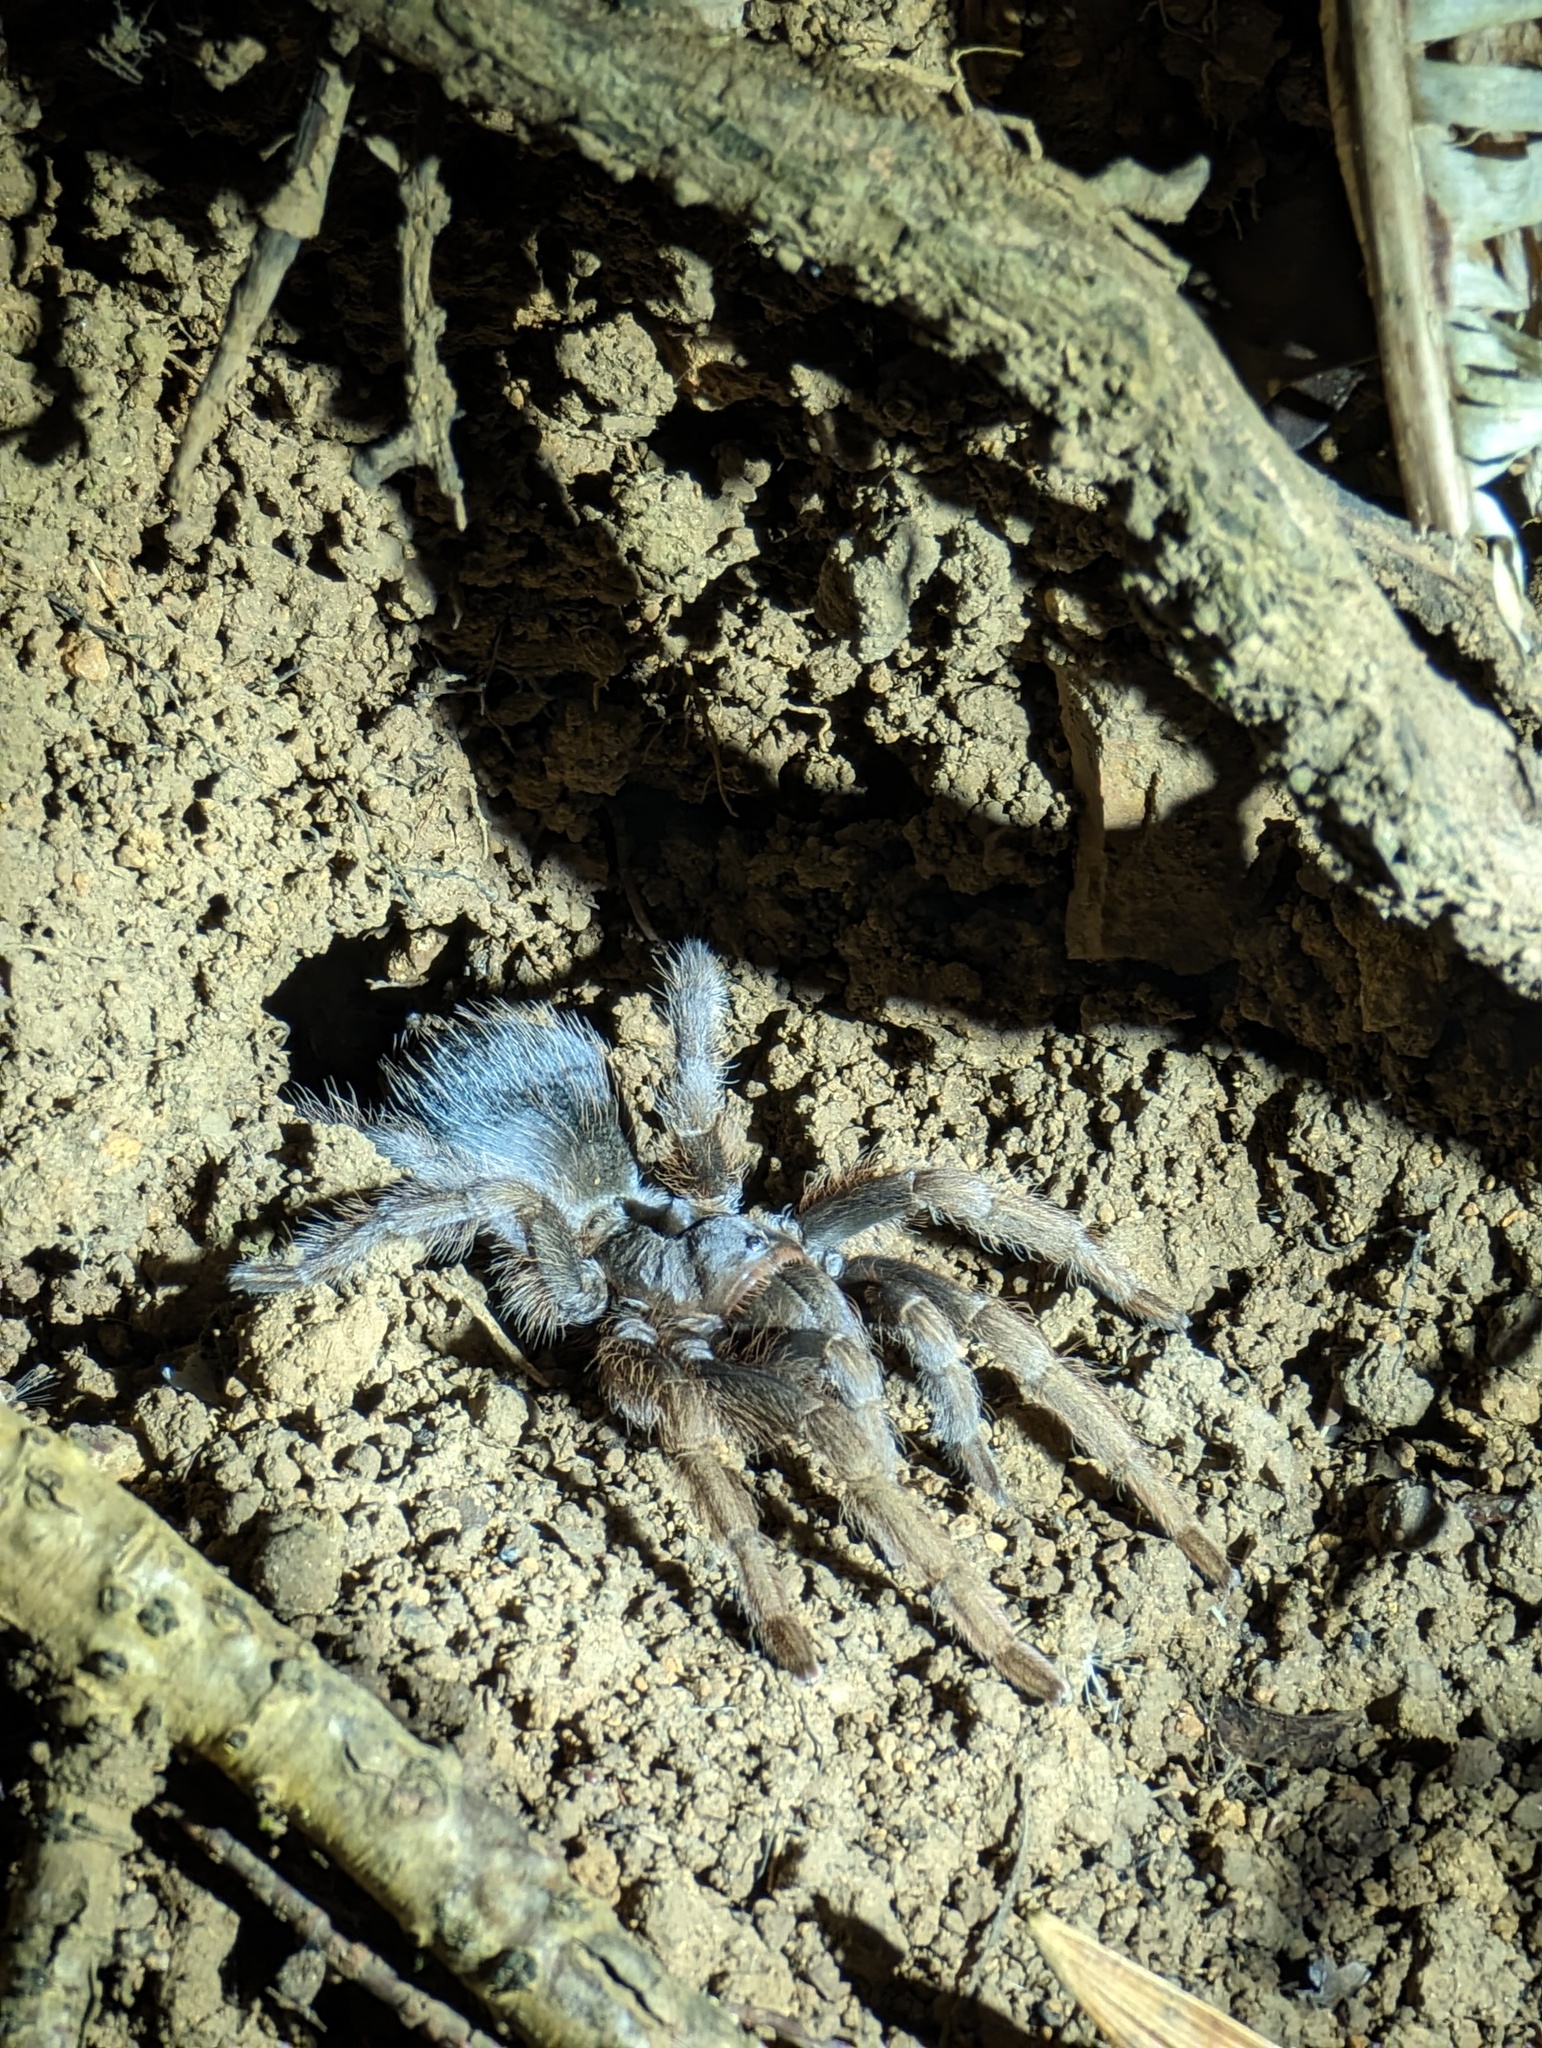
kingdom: Animalia
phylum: Arthropoda
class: Arachnida
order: Araneae
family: Theraphosidae
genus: Sphaerobothria
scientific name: Sphaerobothria hoffmanni
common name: Tarantula spiders
